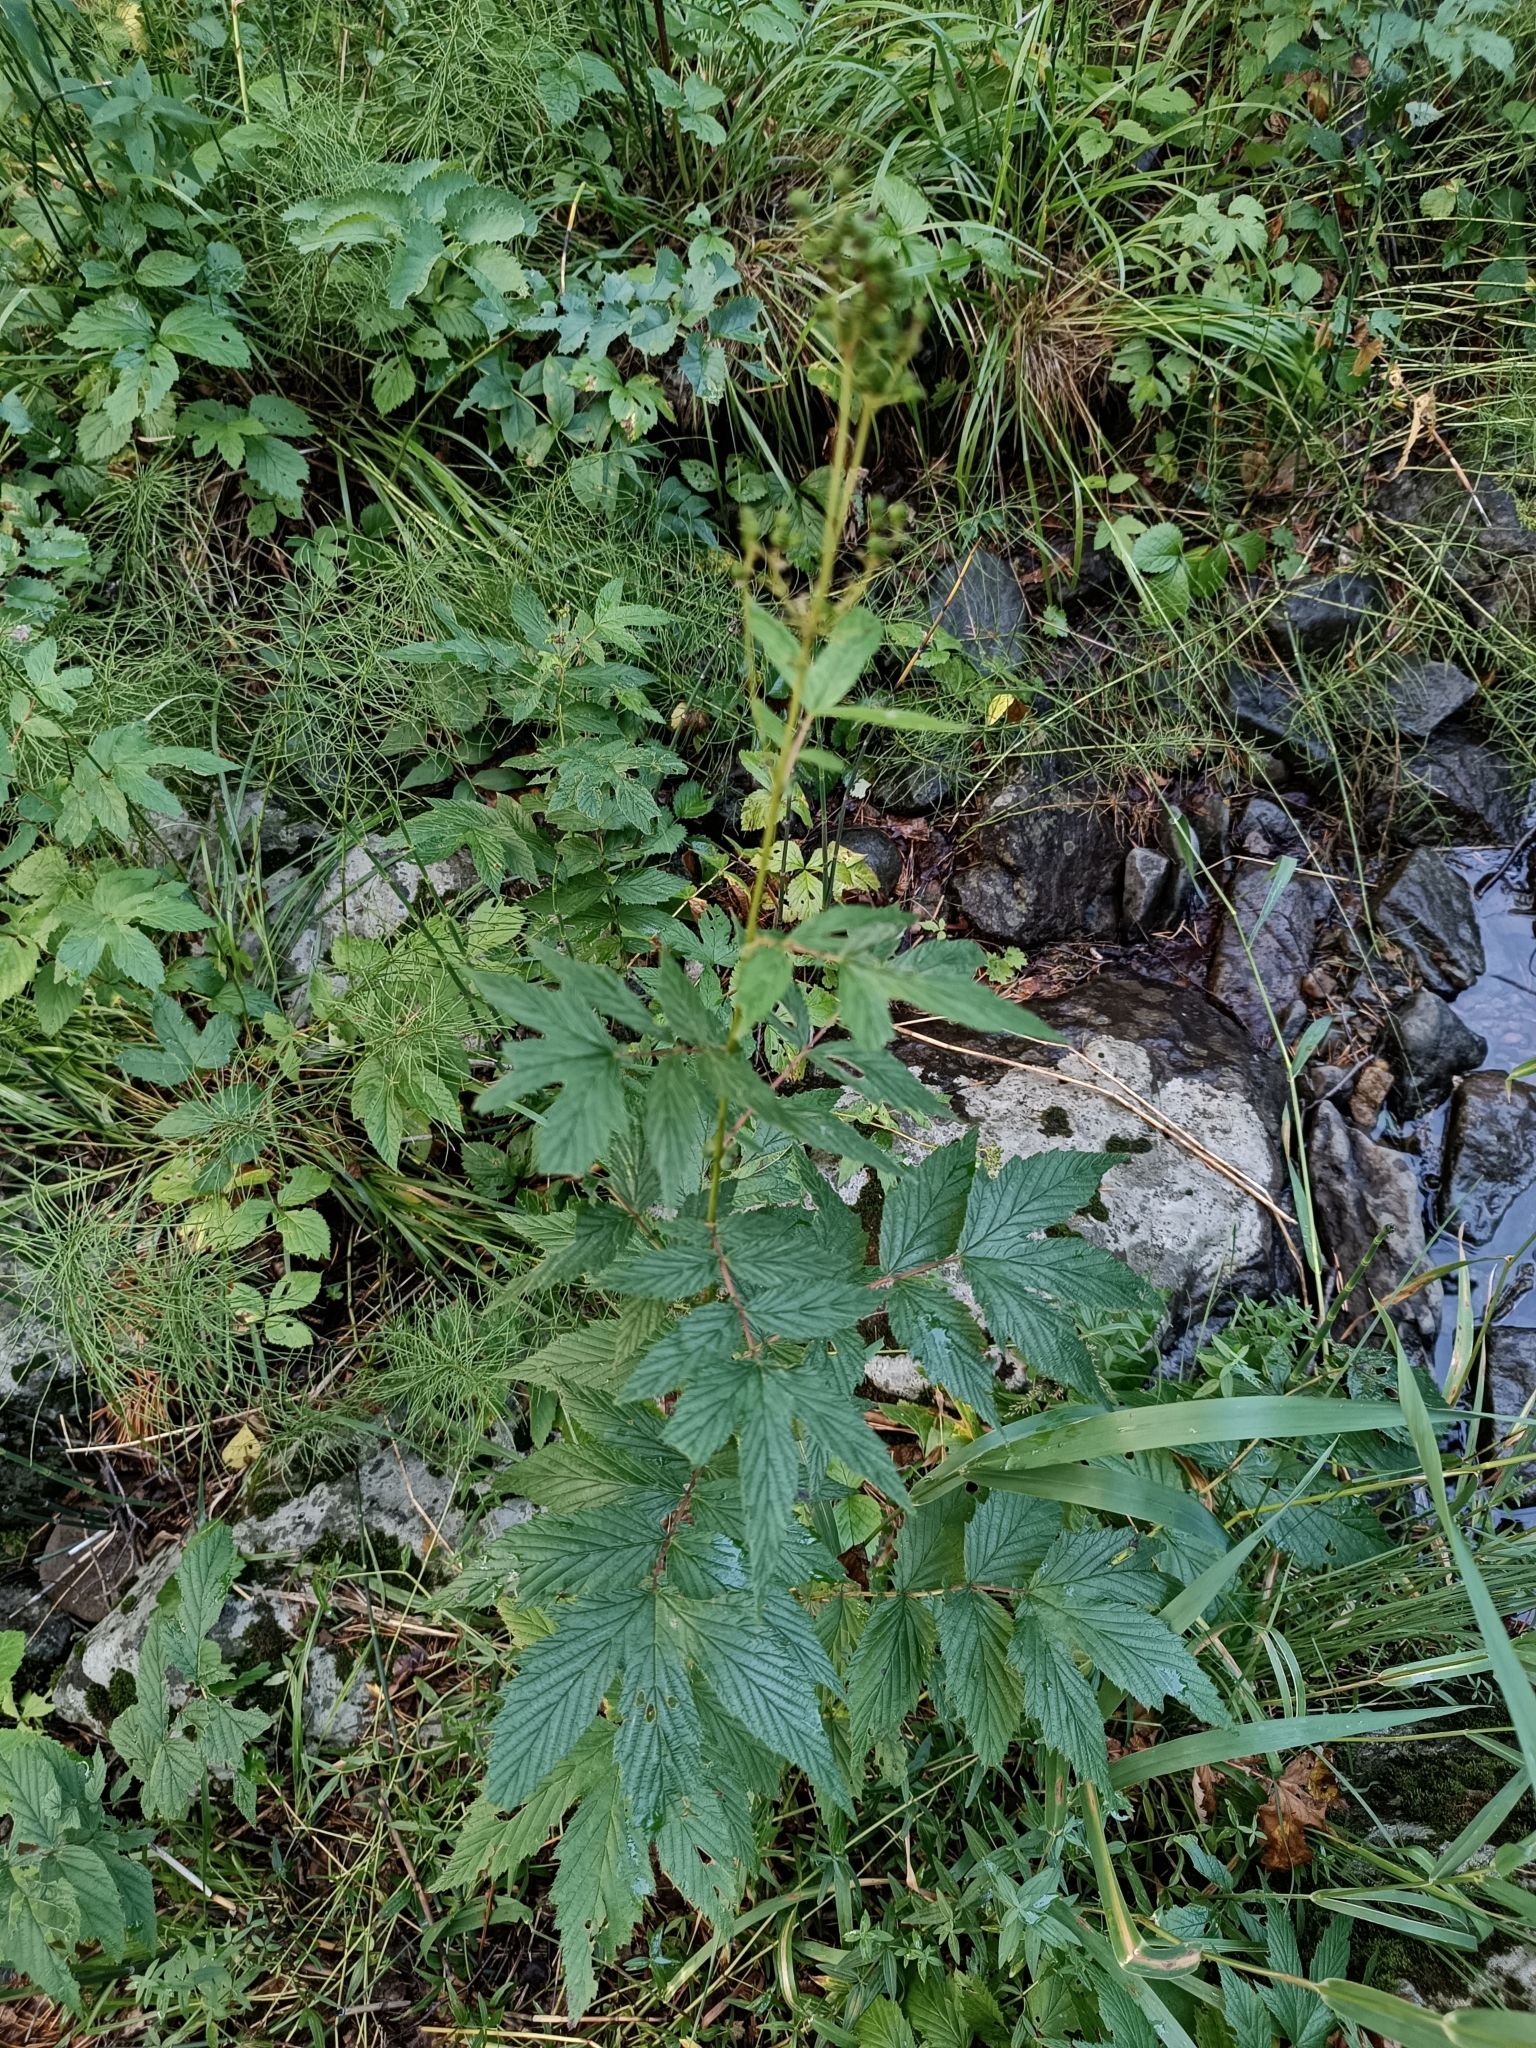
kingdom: Plantae
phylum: Tracheophyta
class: Magnoliopsida
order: Rosales
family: Rosaceae
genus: Filipendula
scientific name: Filipendula ulmaria
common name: Meadowsweet
